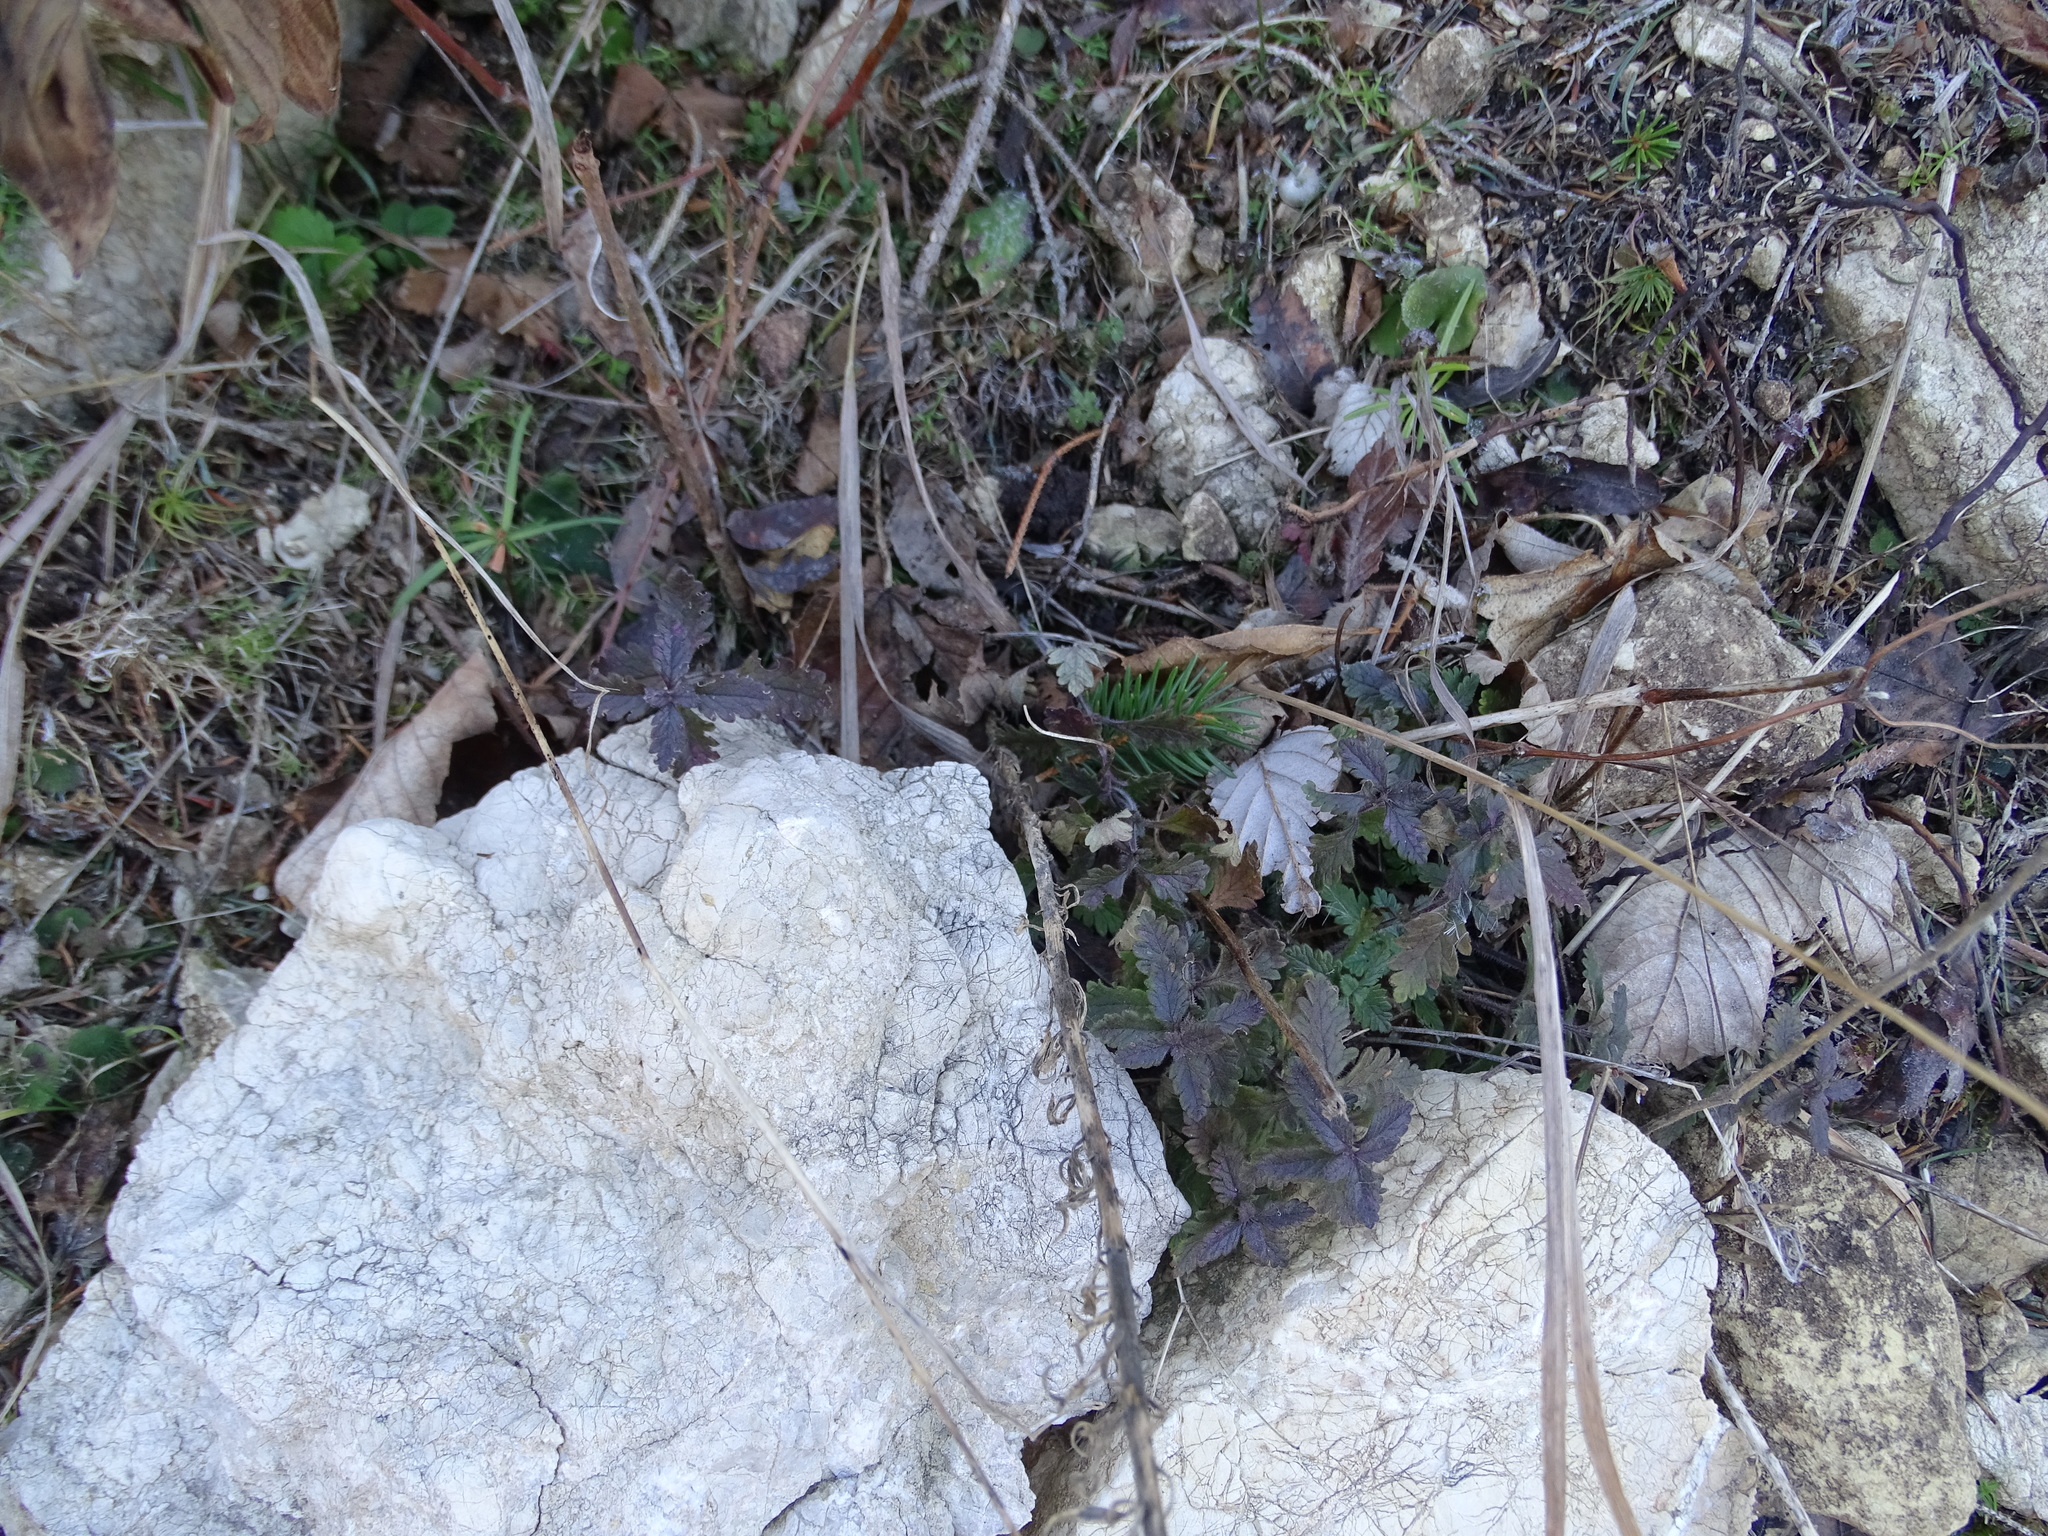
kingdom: Plantae
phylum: Tracheophyta
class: Magnoliopsida
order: Lamiales
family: Lamiaceae
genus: Teucrium
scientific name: Teucrium chamaedrys
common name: Wall germander
